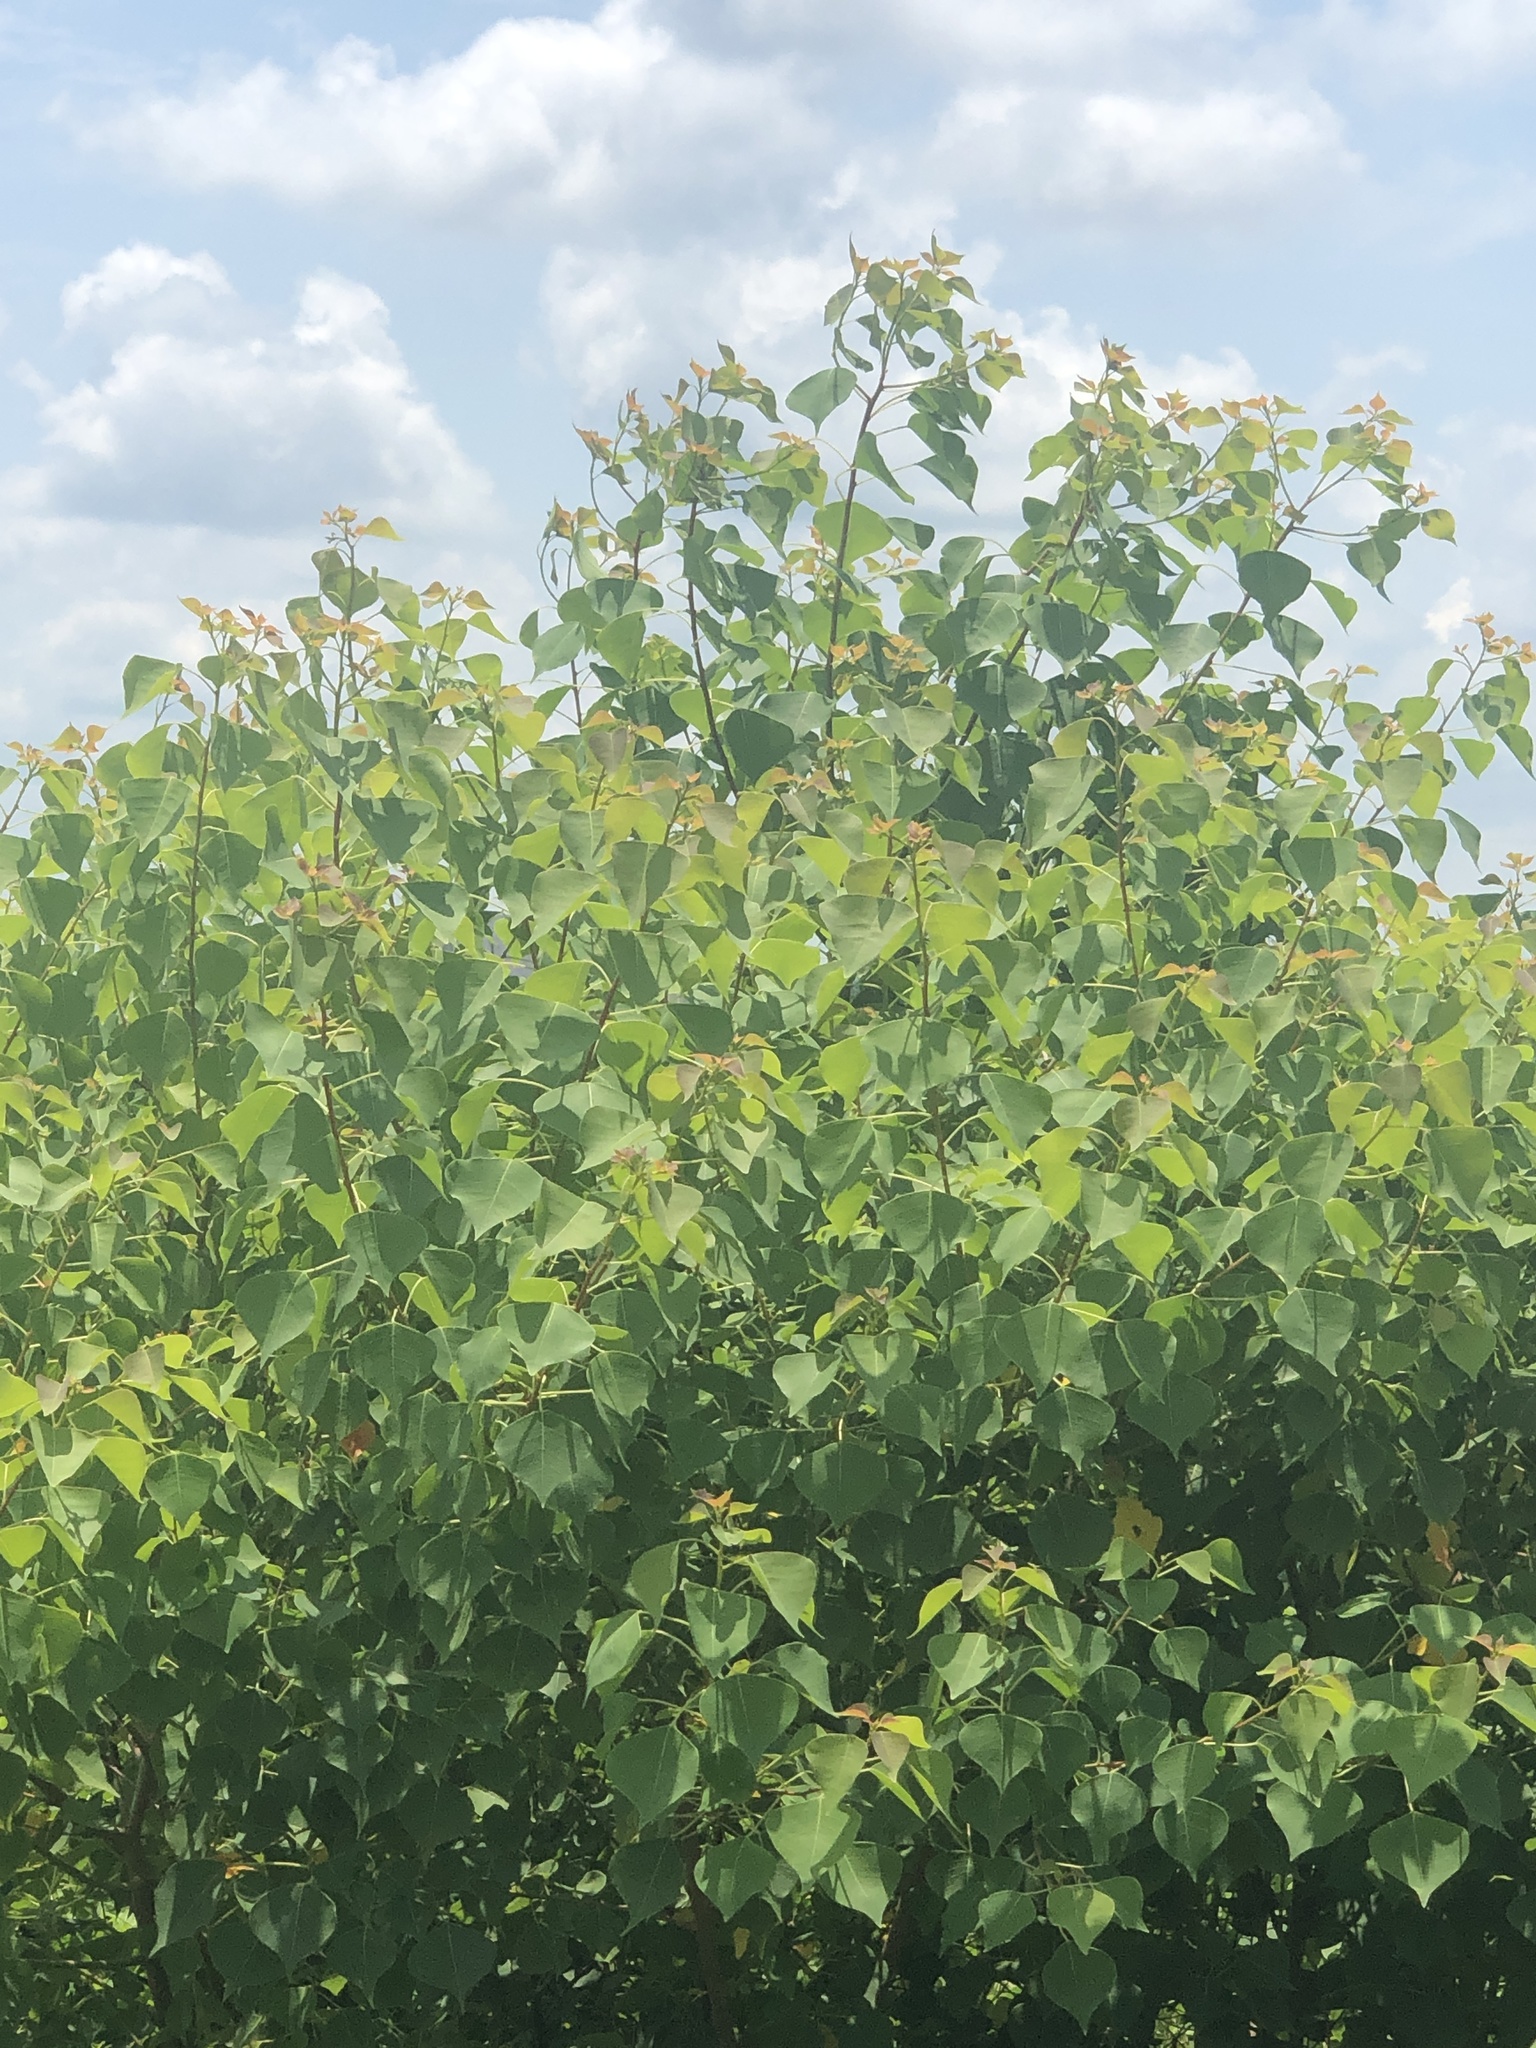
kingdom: Plantae
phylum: Tracheophyta
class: Magnoliopsida
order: Malpighiales
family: Euphorbiaceae
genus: Triadica
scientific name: Triadica sebifera
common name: Chinese tallow
